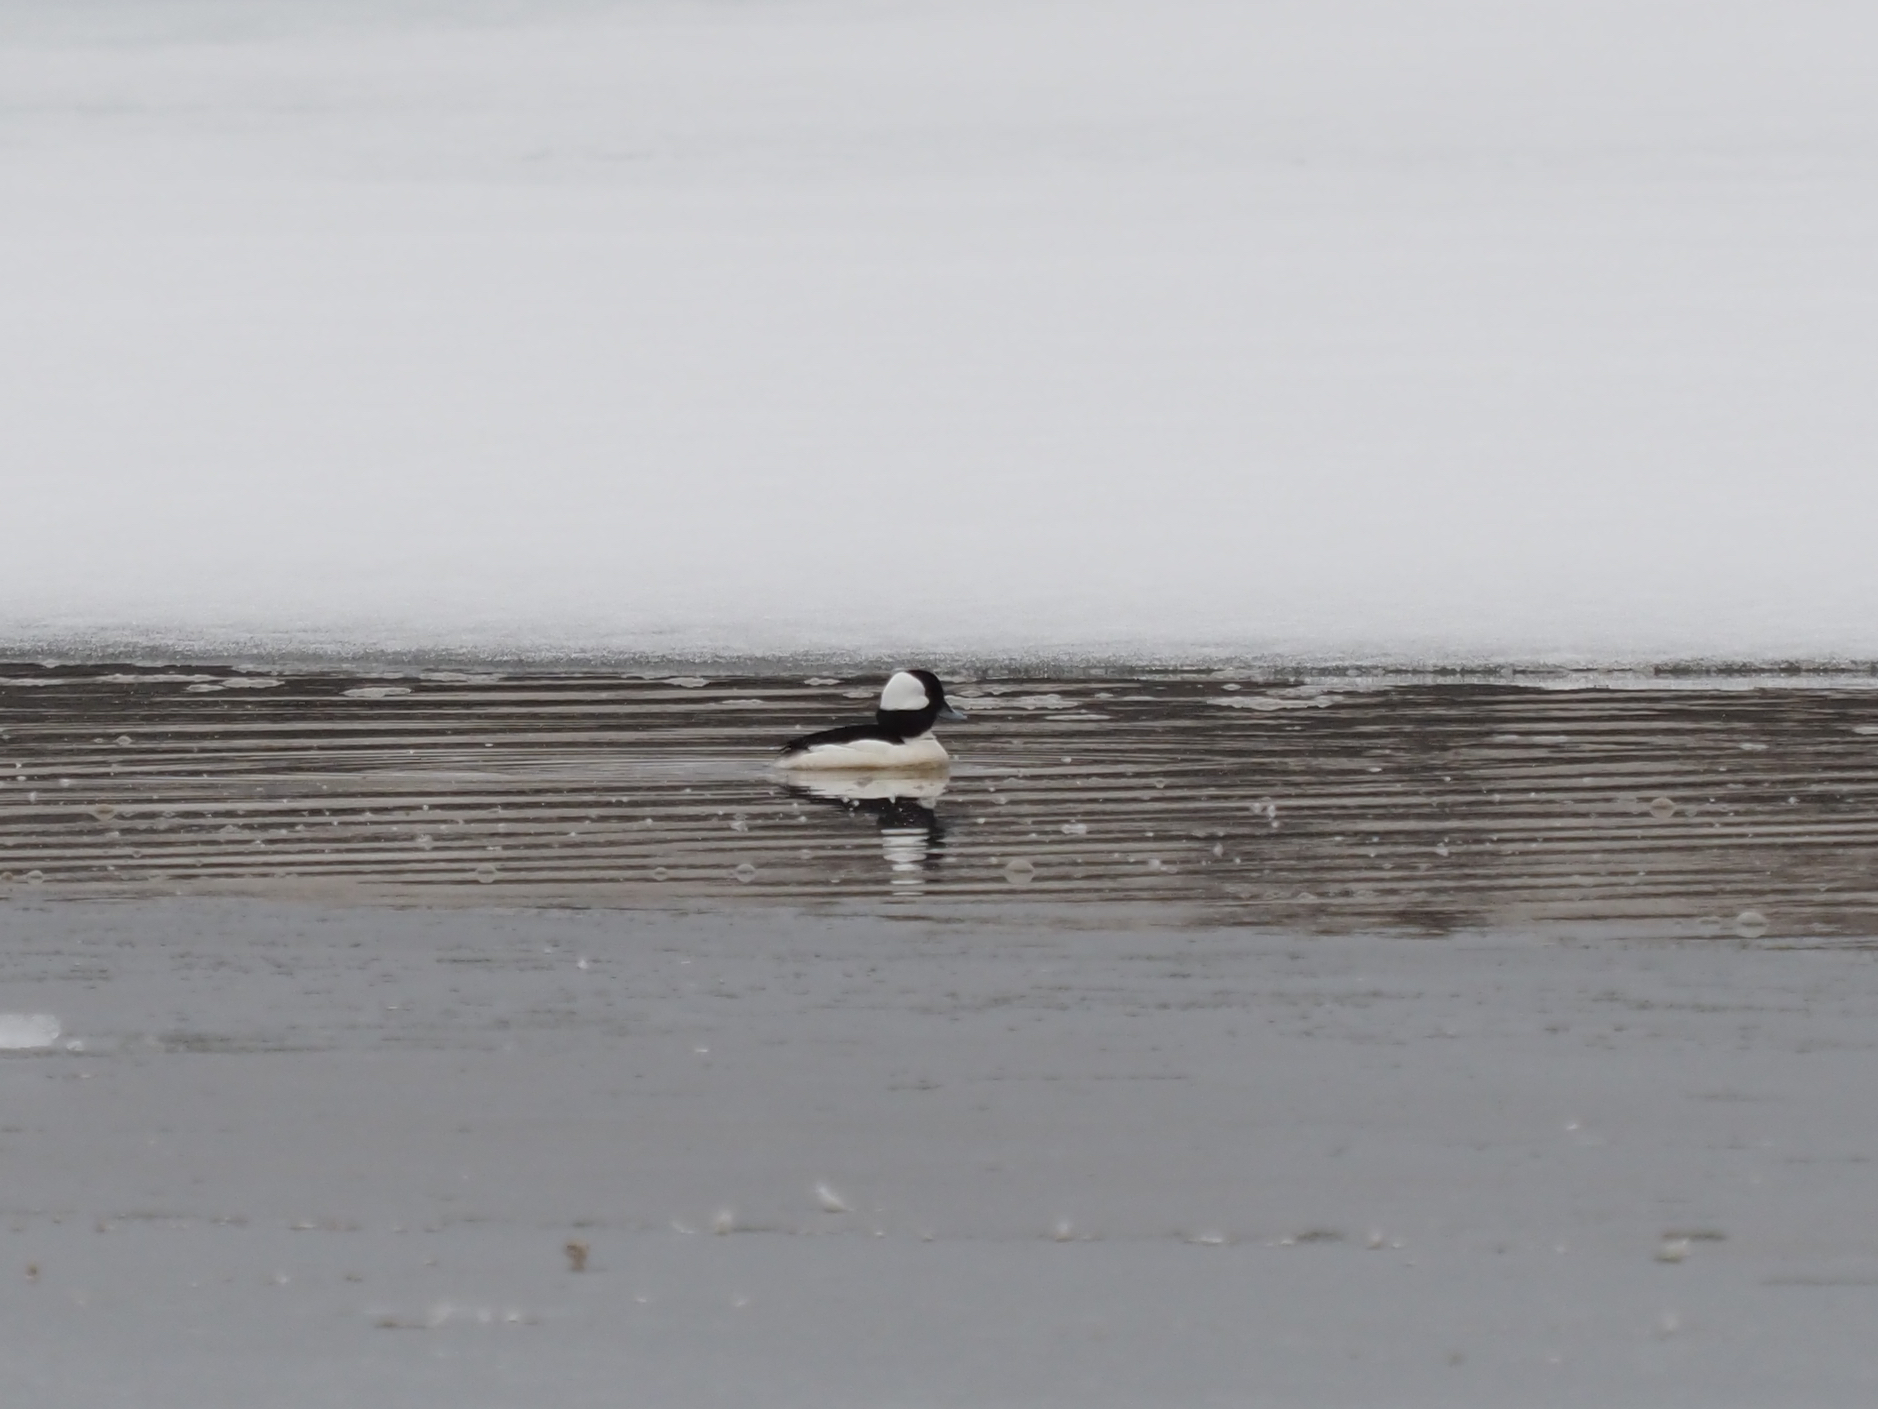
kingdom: Animalia
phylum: Chordata
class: Aves
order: Anseriformes
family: Anatidae
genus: Bucephala
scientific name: Bucephala albeola
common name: Bufflehead
